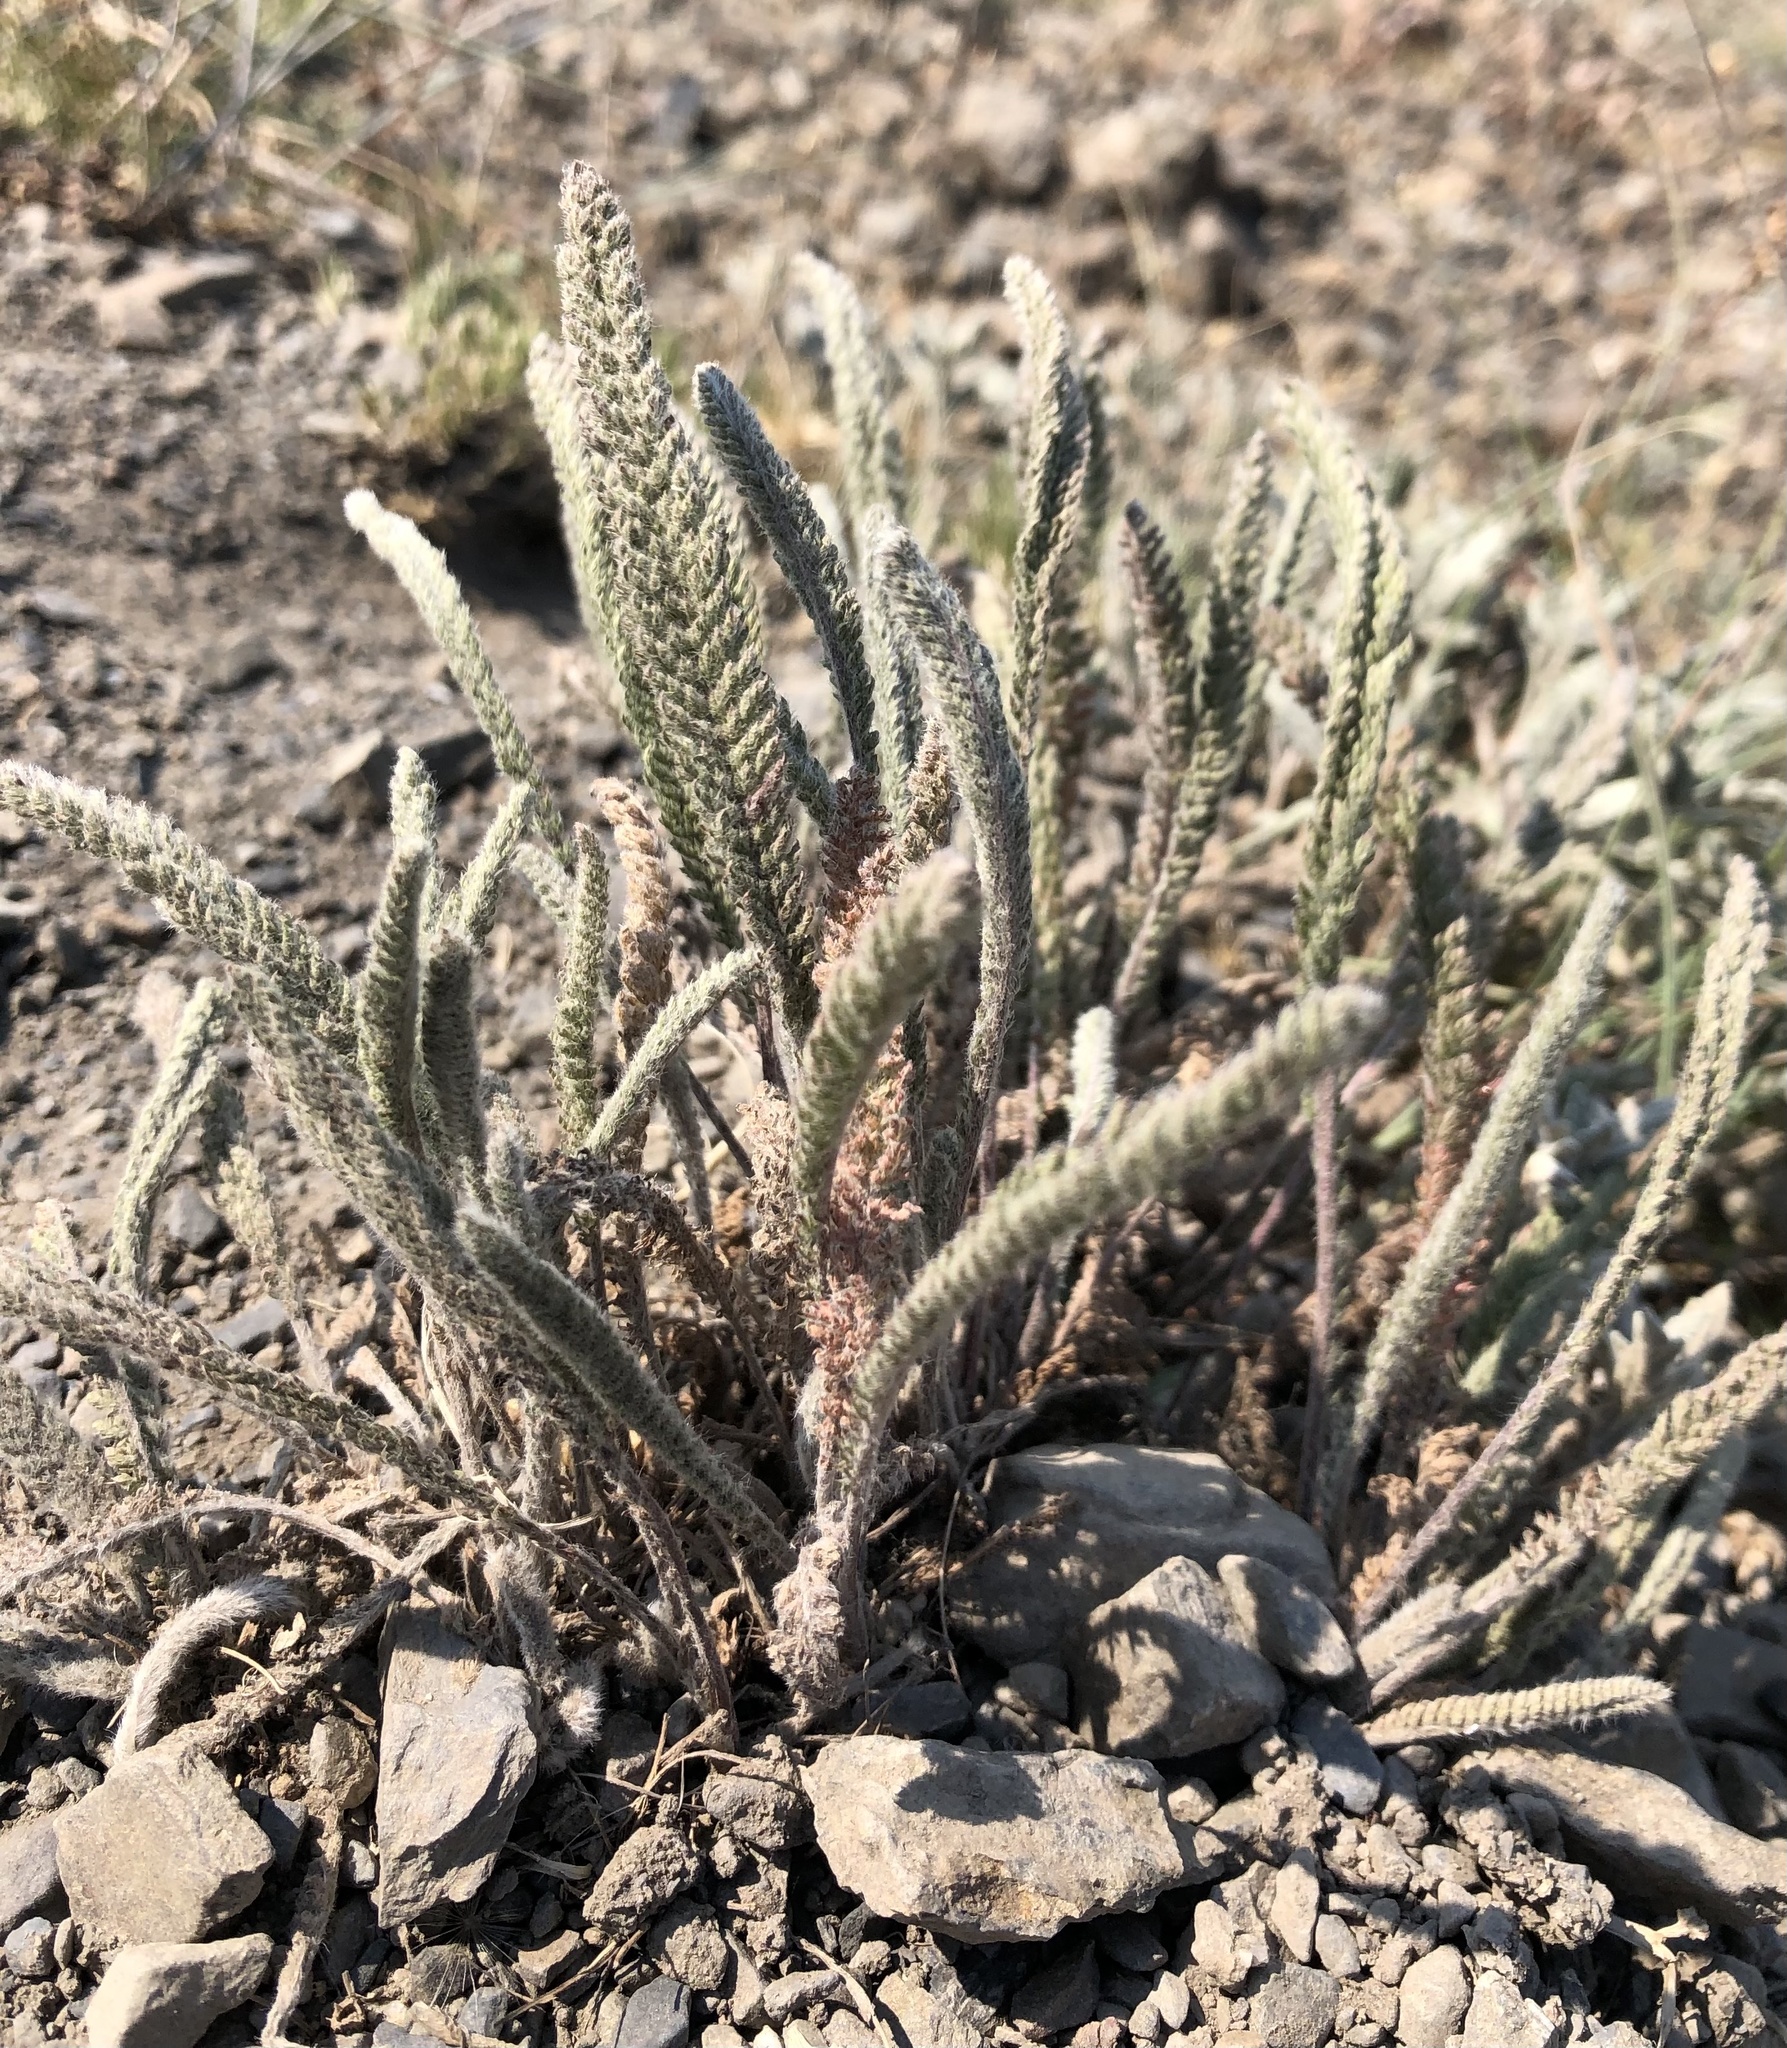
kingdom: Plantae
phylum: Tracheophyta
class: Magnoliopsida
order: Asterales
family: Asteraceae
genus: Achillea
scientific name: Achillea millefolium
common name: Yarrow
